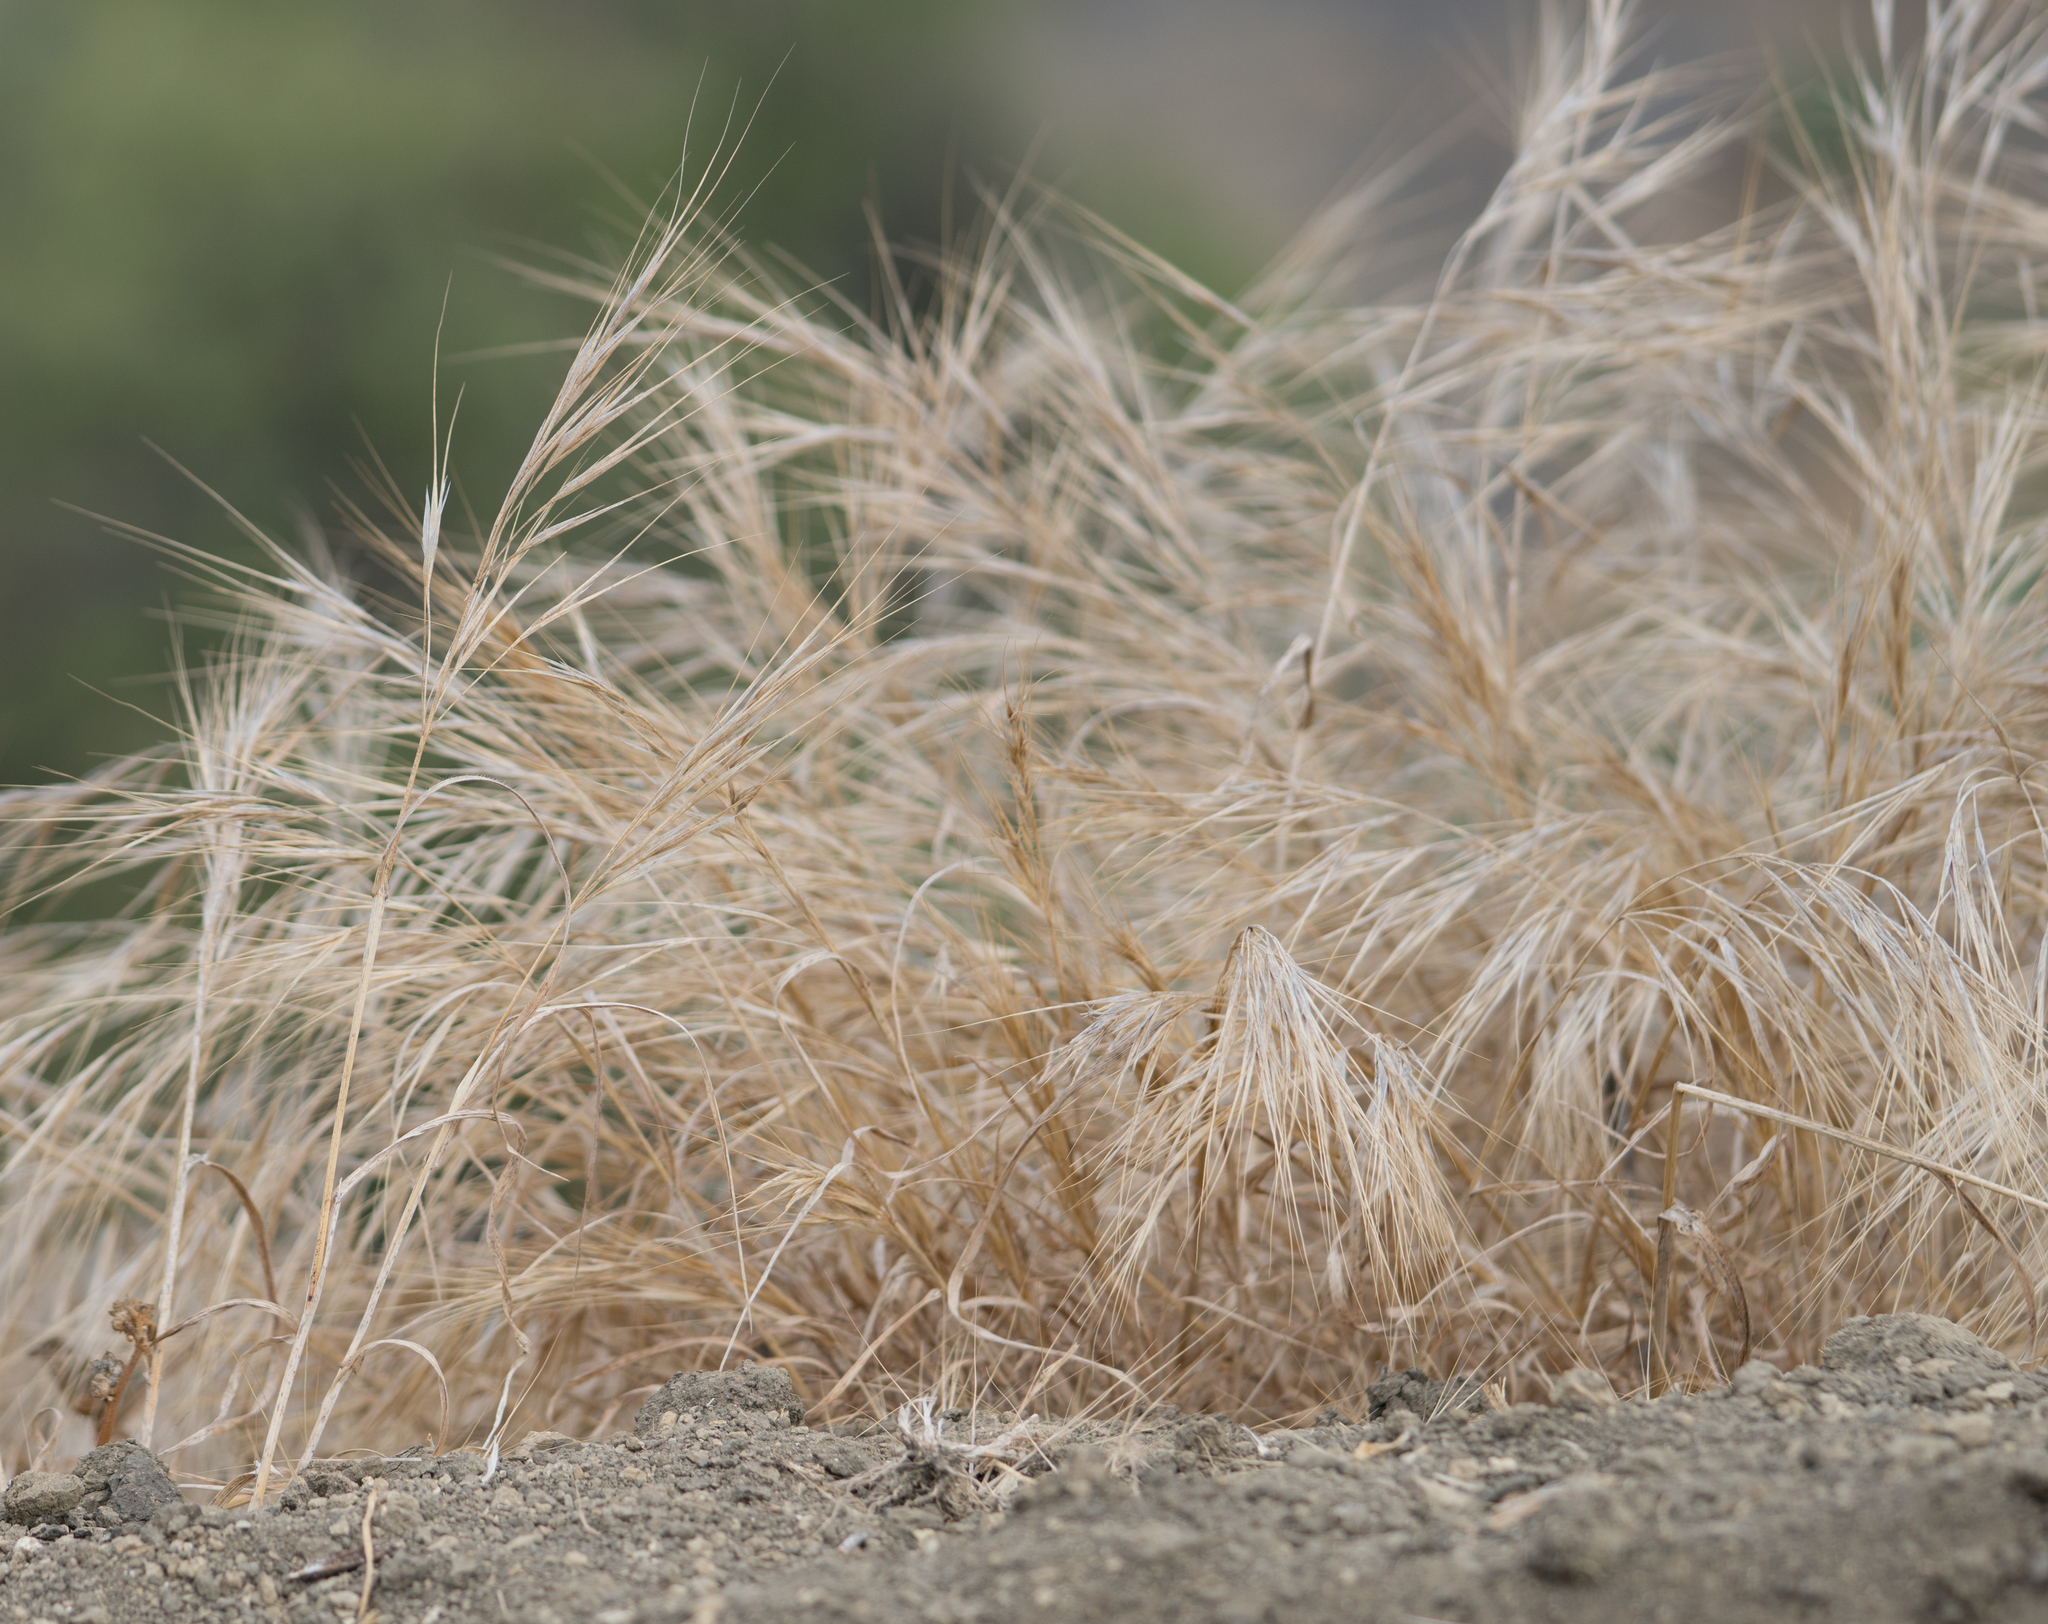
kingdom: Plantae
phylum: Tracheophyta
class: Liliopsida
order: Poales
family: Poaceae
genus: Bromus
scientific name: Bromus diandrus
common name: Ripgut brome
